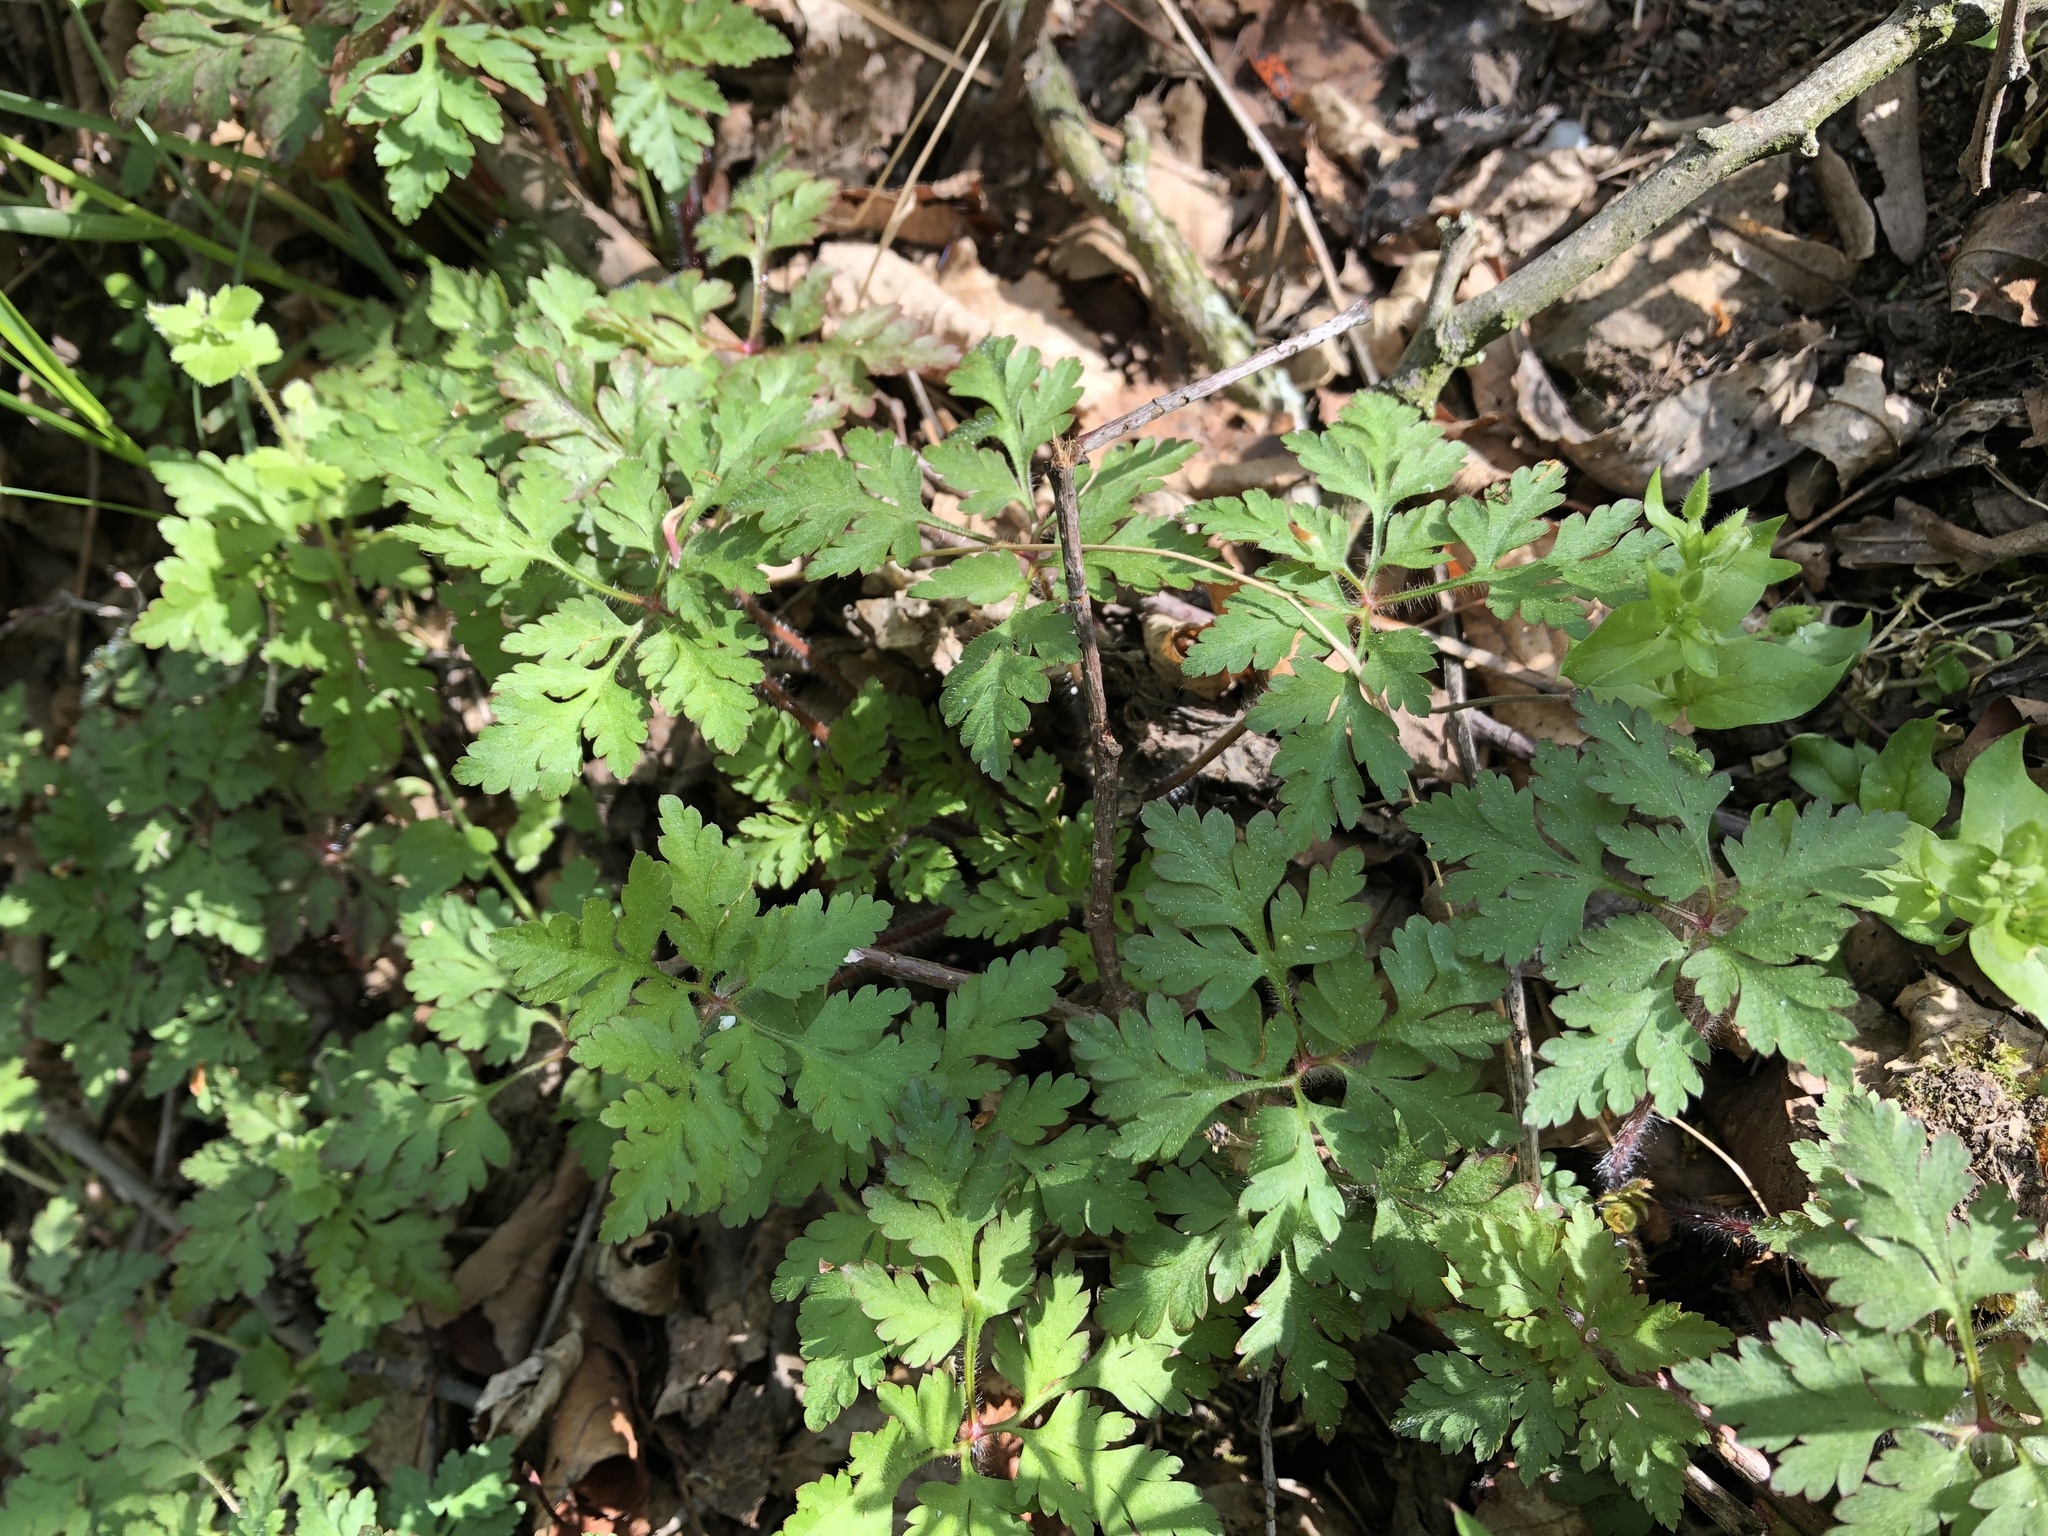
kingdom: Plantae
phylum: Tracheophyta
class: Magnoliopsida
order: Geraniales
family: Geraniaceae
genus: Geranium
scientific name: Geranium robertianum
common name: Herb-robert
